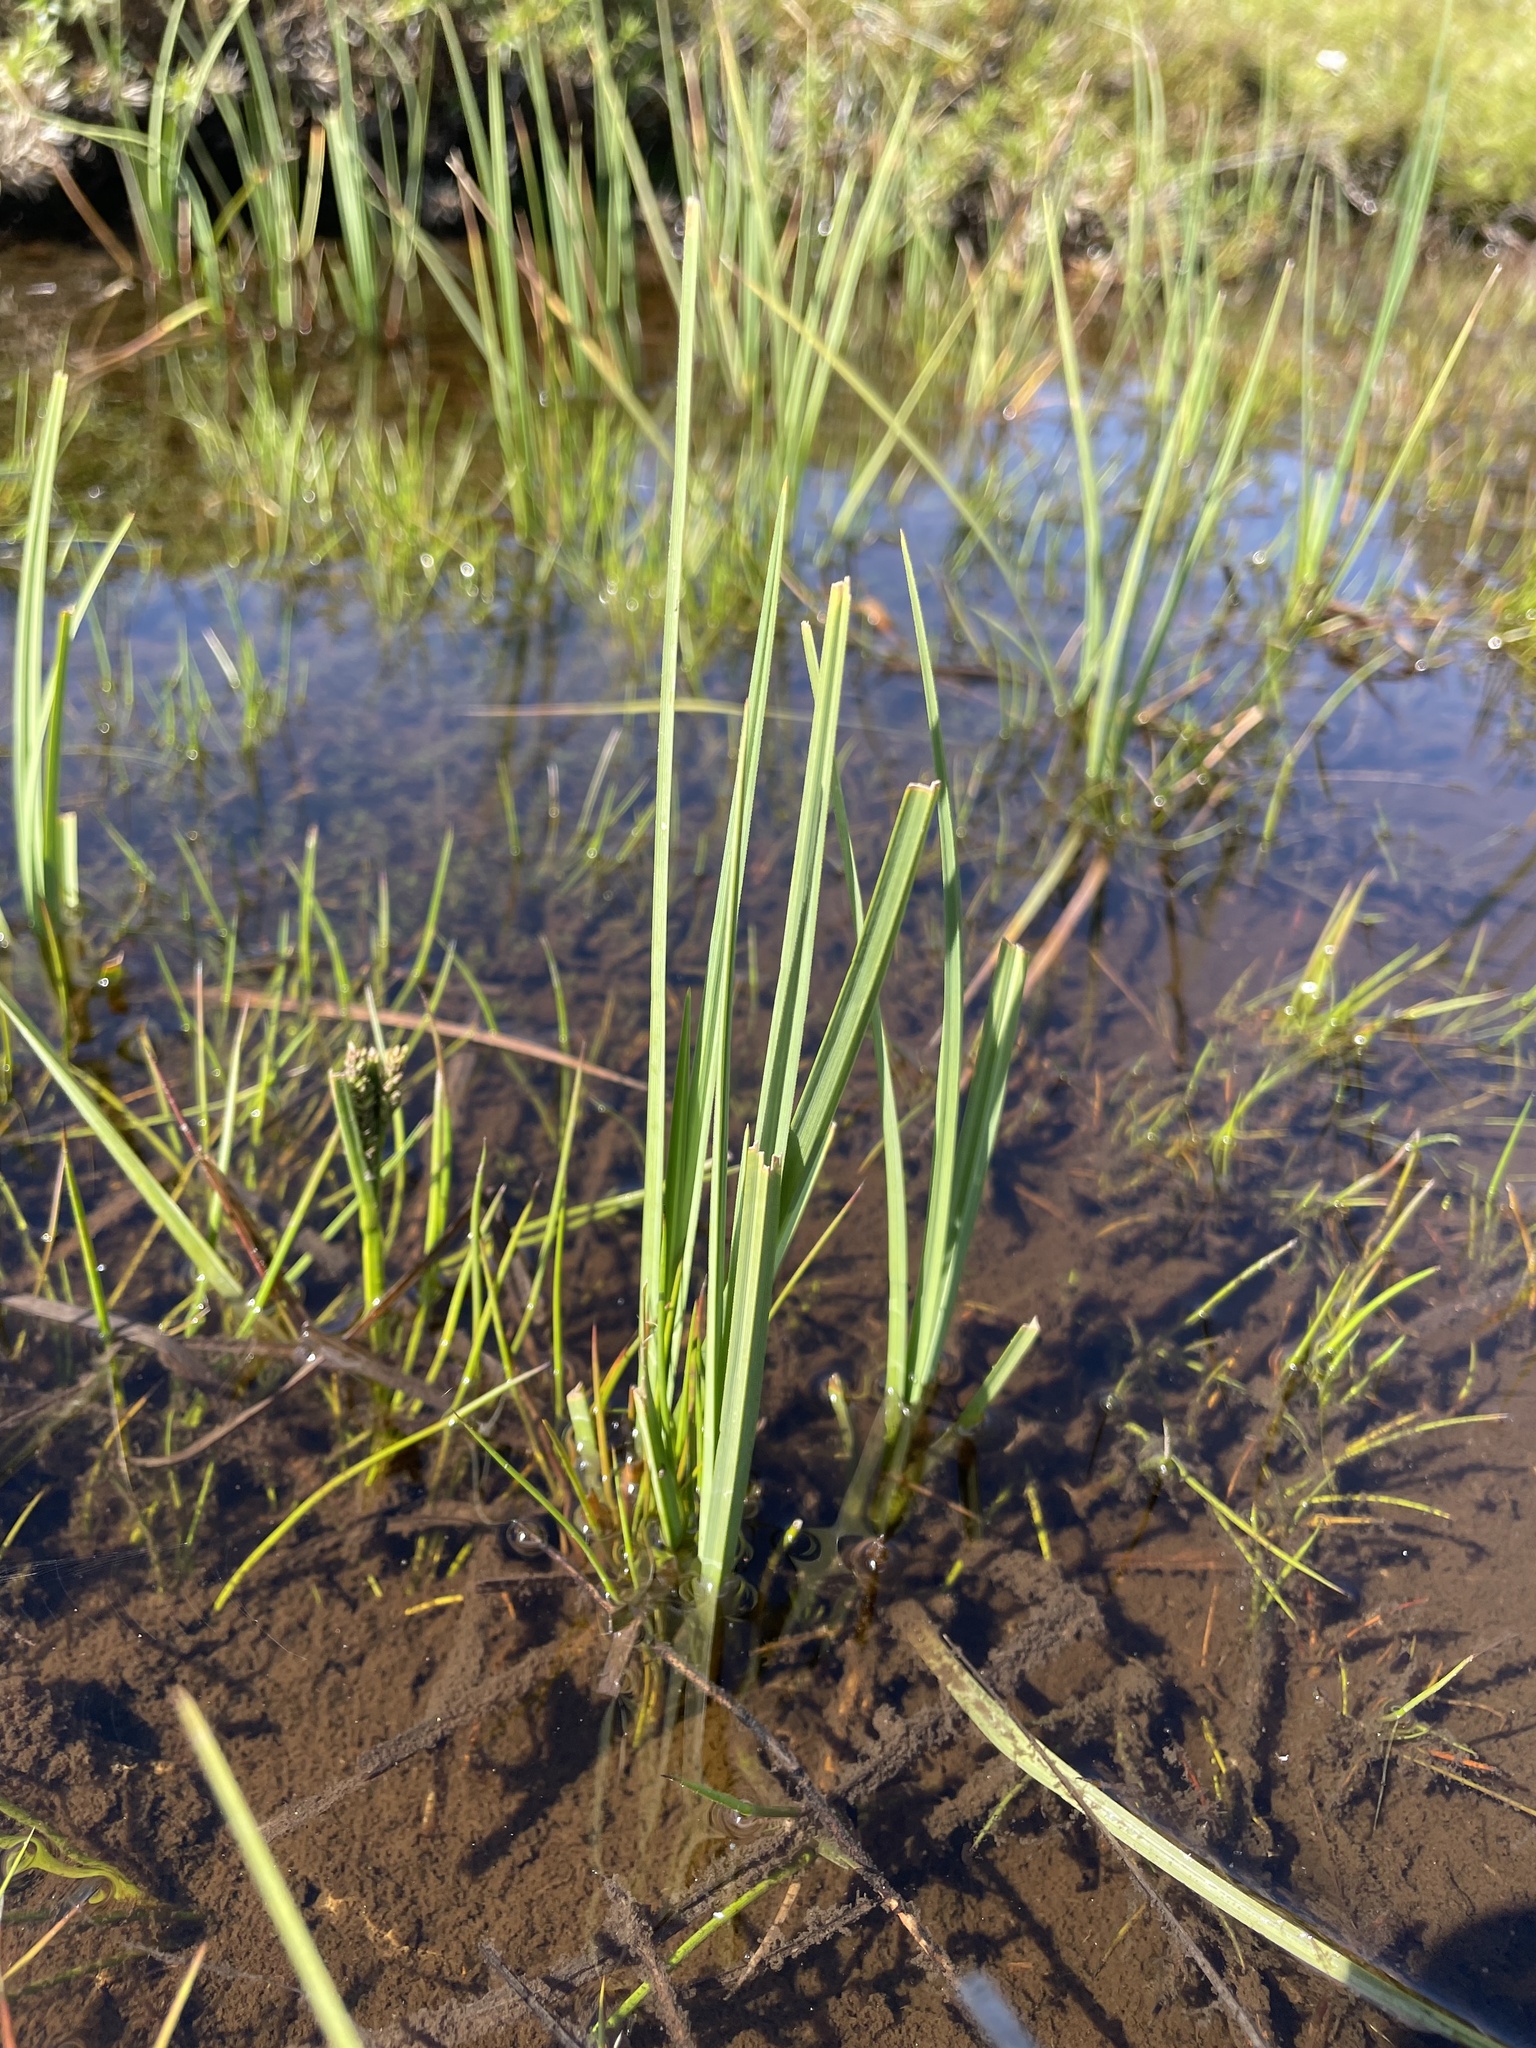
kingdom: Plantae
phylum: Tracheophyta
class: Liliopsida
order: Poales
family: Cyperaceae
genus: Carex
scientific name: Carex gaudichaudiana
